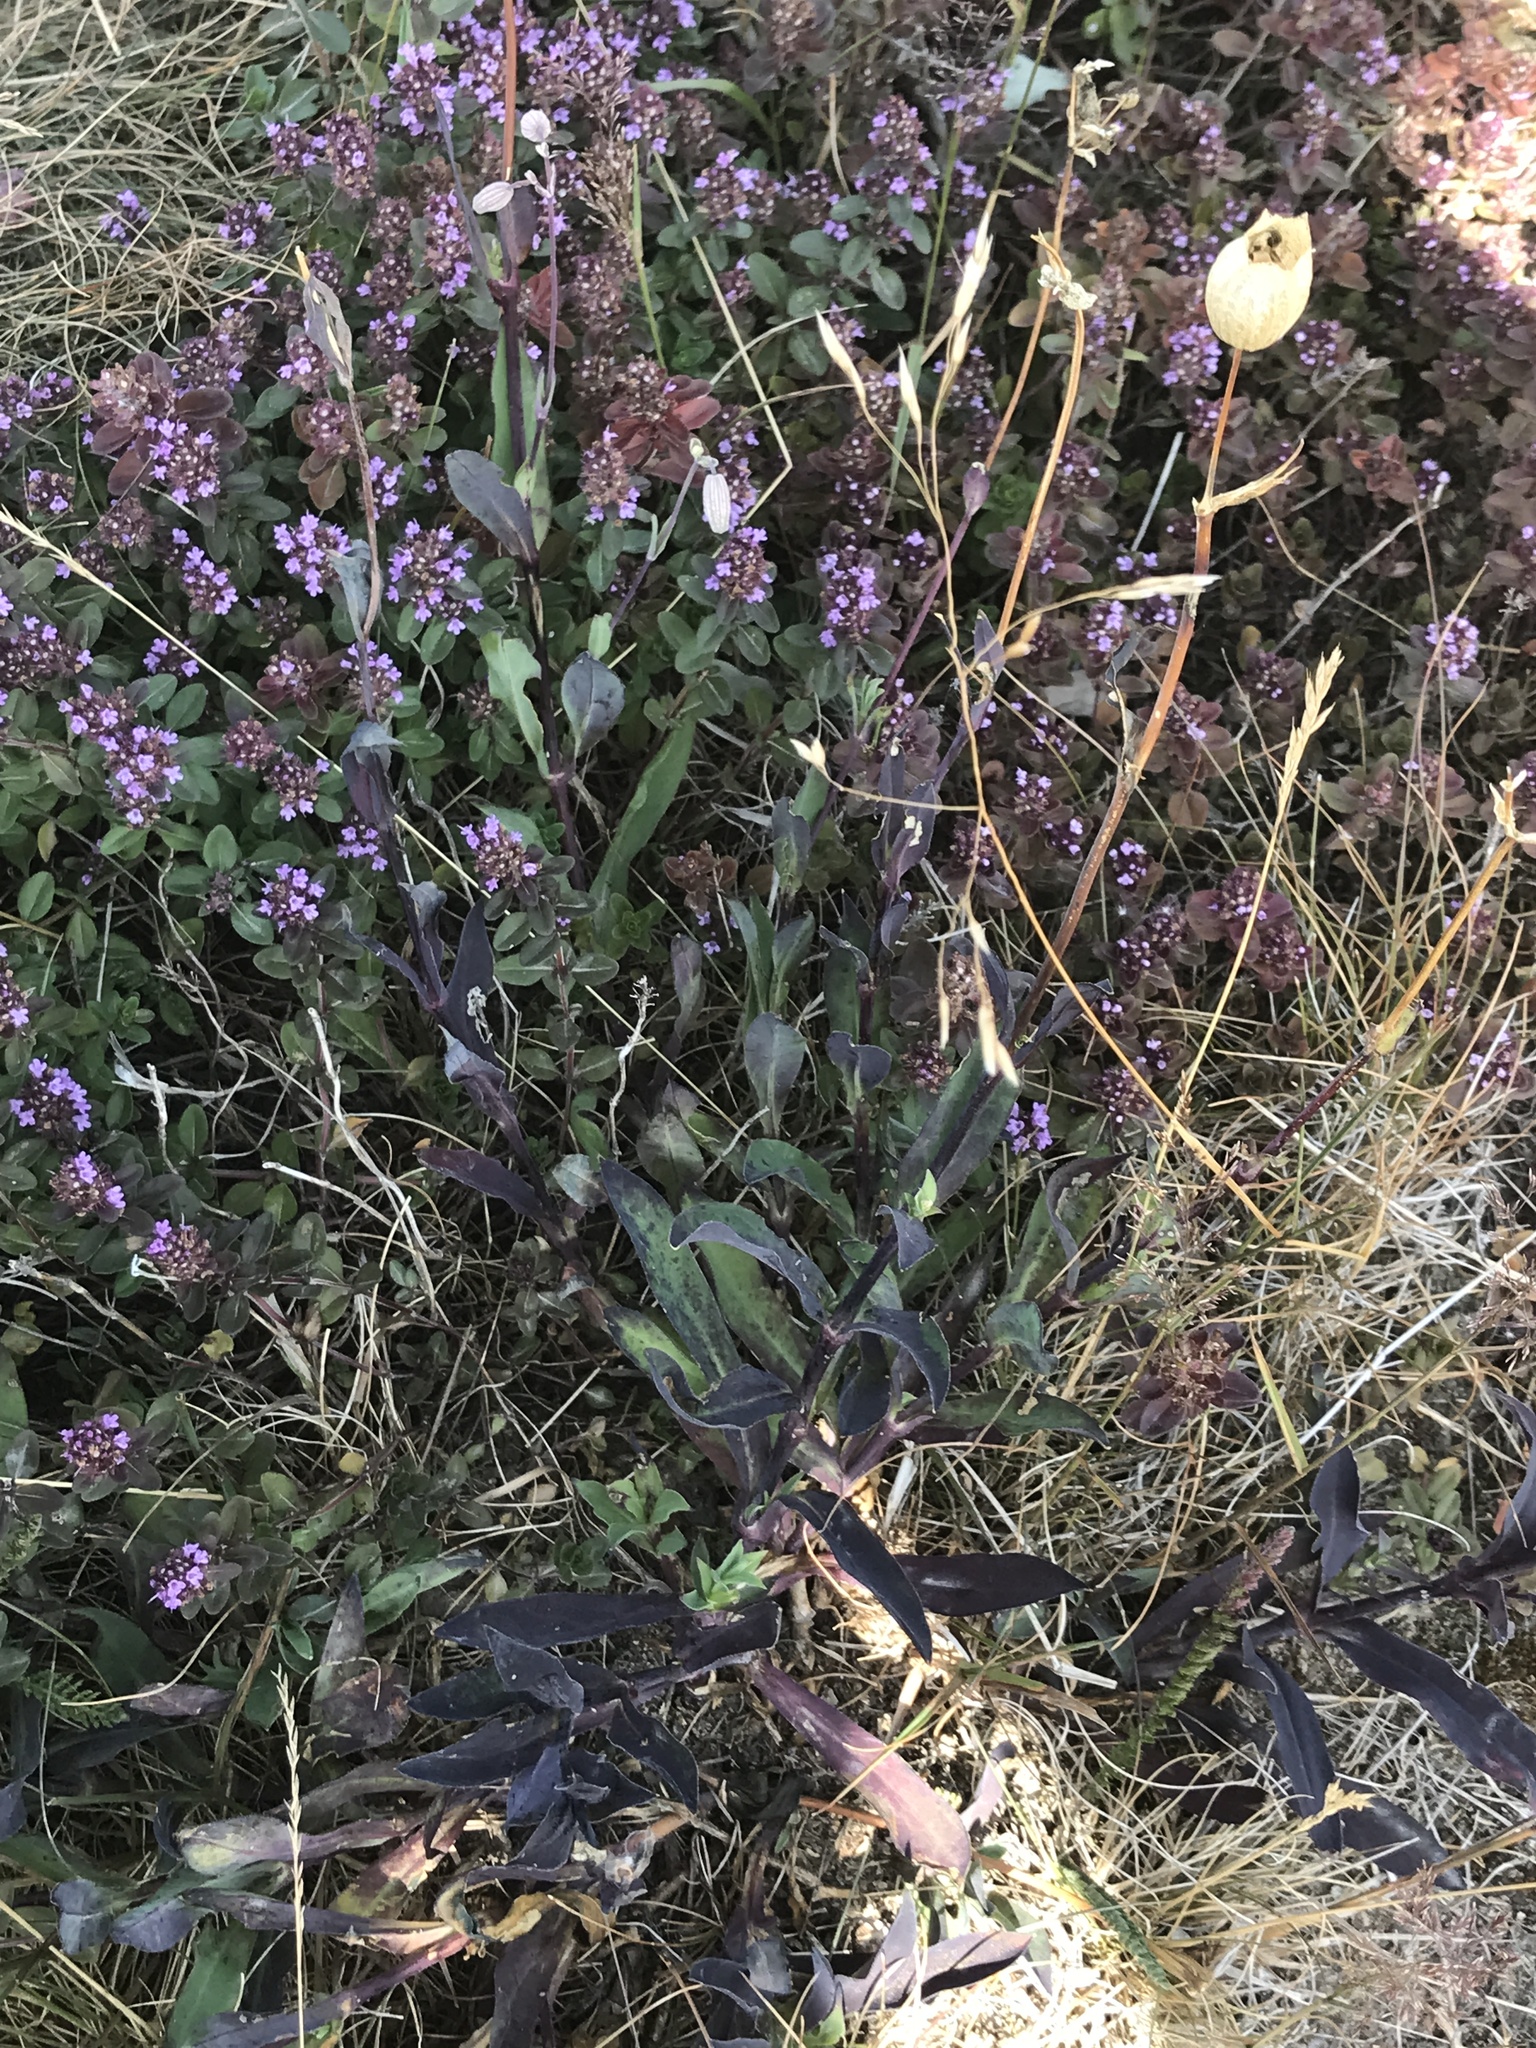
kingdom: Plantae
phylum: Tracheophyta
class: Magnoliopsida
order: Lamiales
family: Lamiaceae
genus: Thymus
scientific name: Thymus pulegioides
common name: Large thyme
